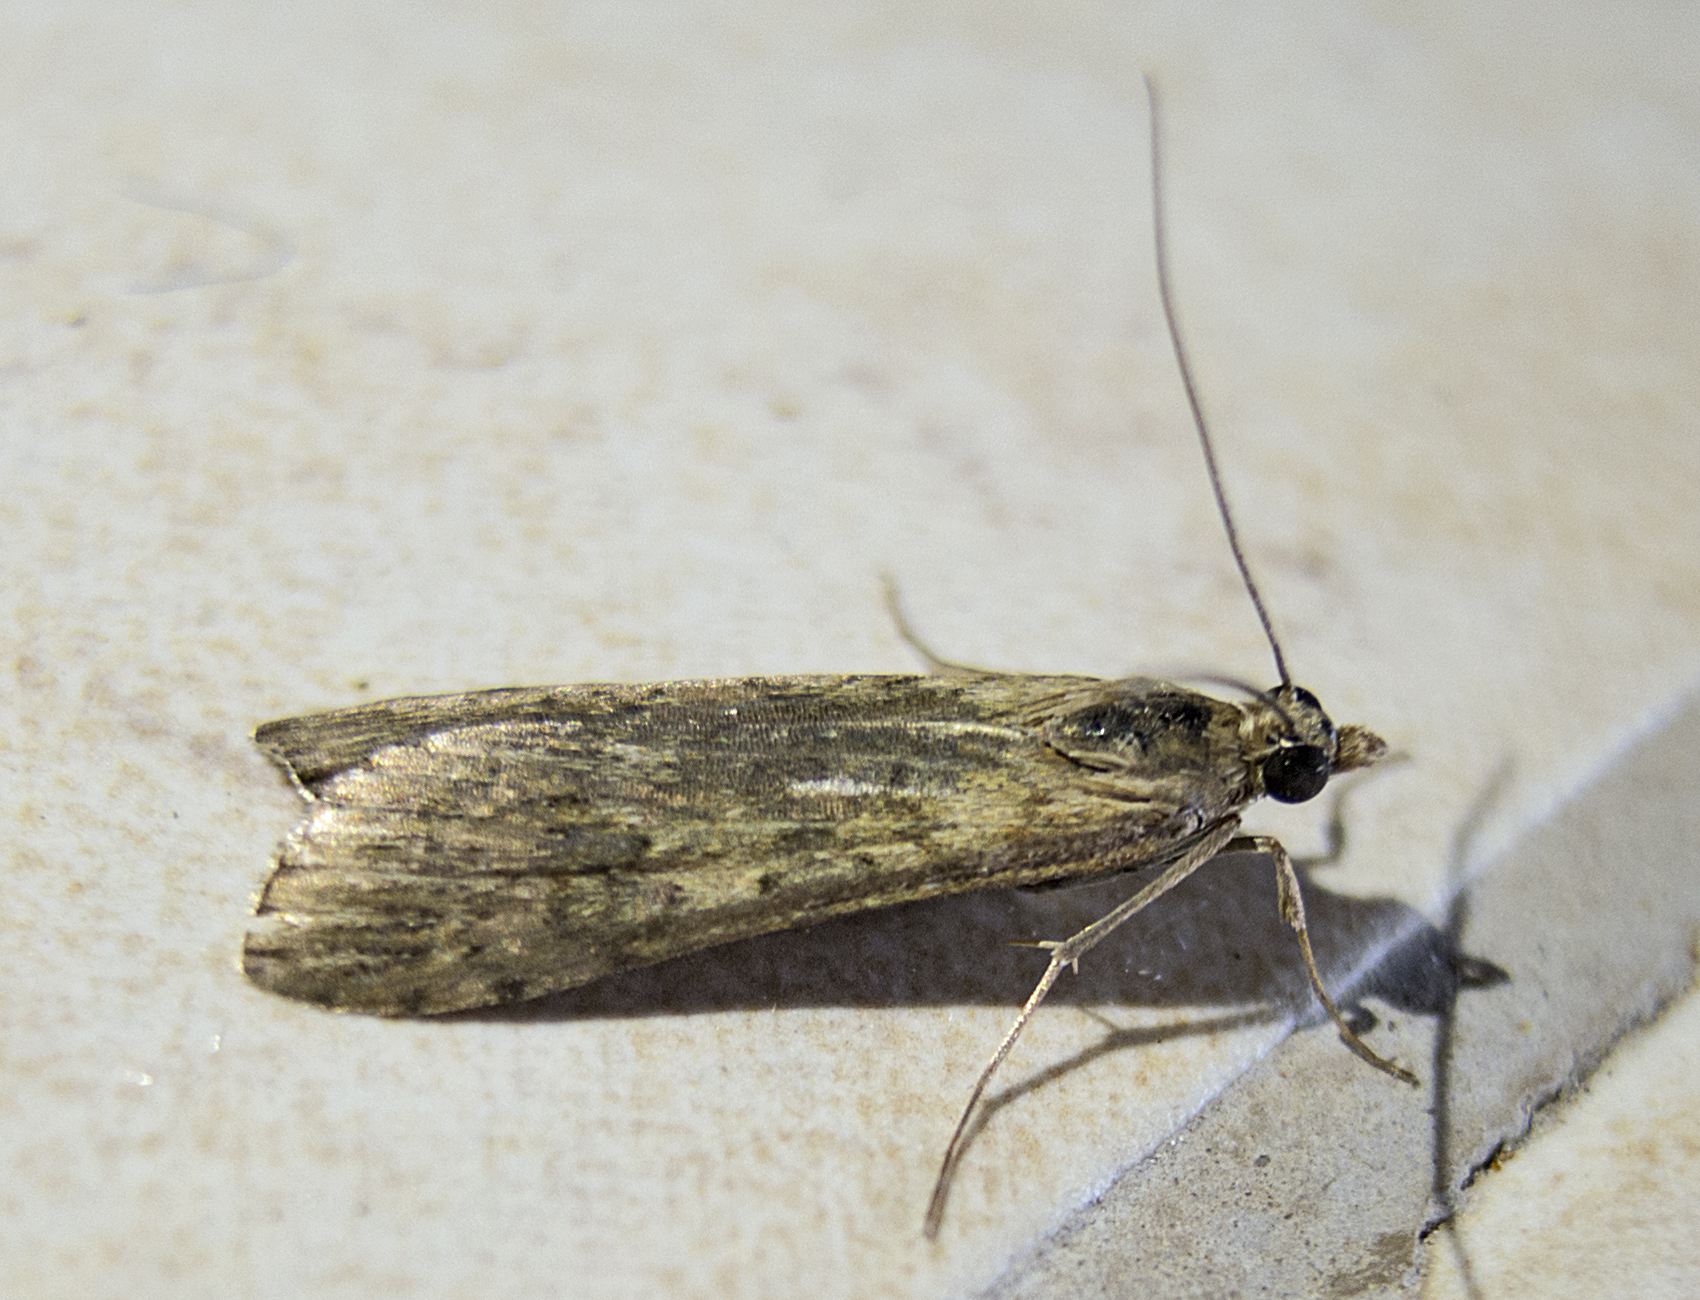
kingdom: Animalia
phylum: Arthropoda
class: Insecta
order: Lepidoptera
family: Crambidae
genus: Nomophila
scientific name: Nomophila noctuella
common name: Rush veneer
